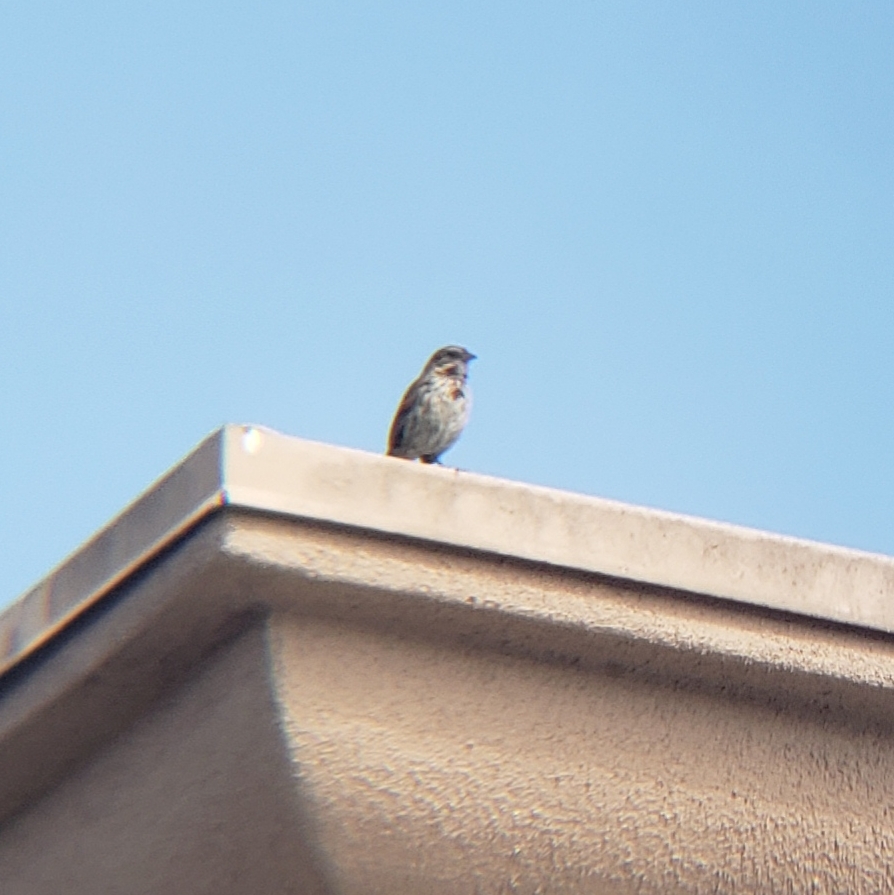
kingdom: Animalia
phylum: Chordata
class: Aves
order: Passeriformes
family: Passerellidae
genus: Melospiza
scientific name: Melospiza melodia
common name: Song sparrow
